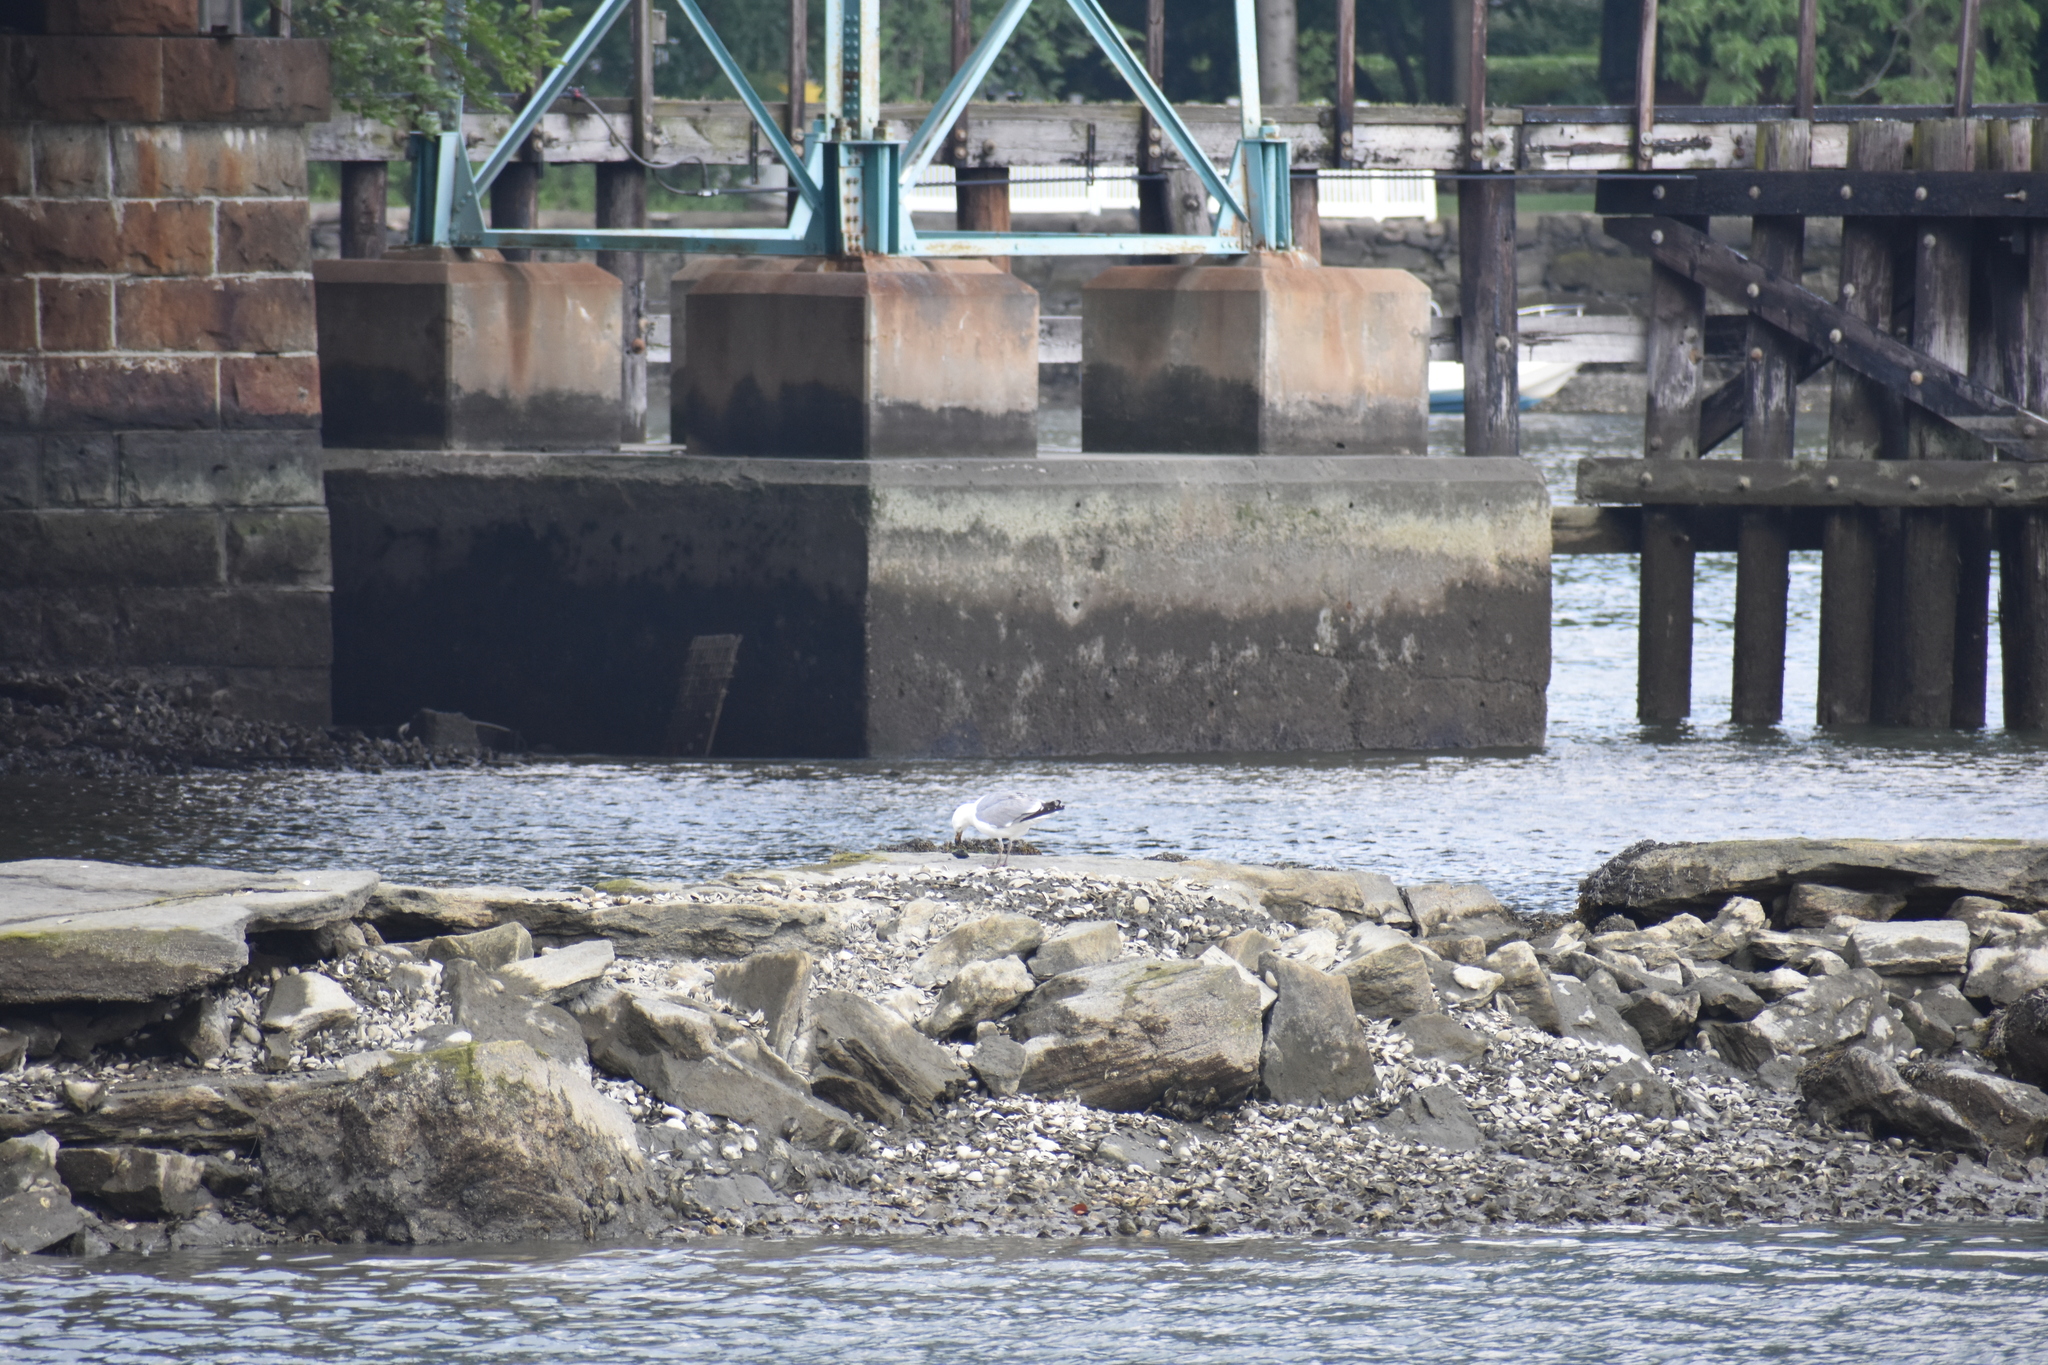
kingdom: Animalia
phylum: Chordata
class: Aves
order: Charadriiformes
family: Laridae
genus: Larus
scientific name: Larus argentatus
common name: Herring gull
